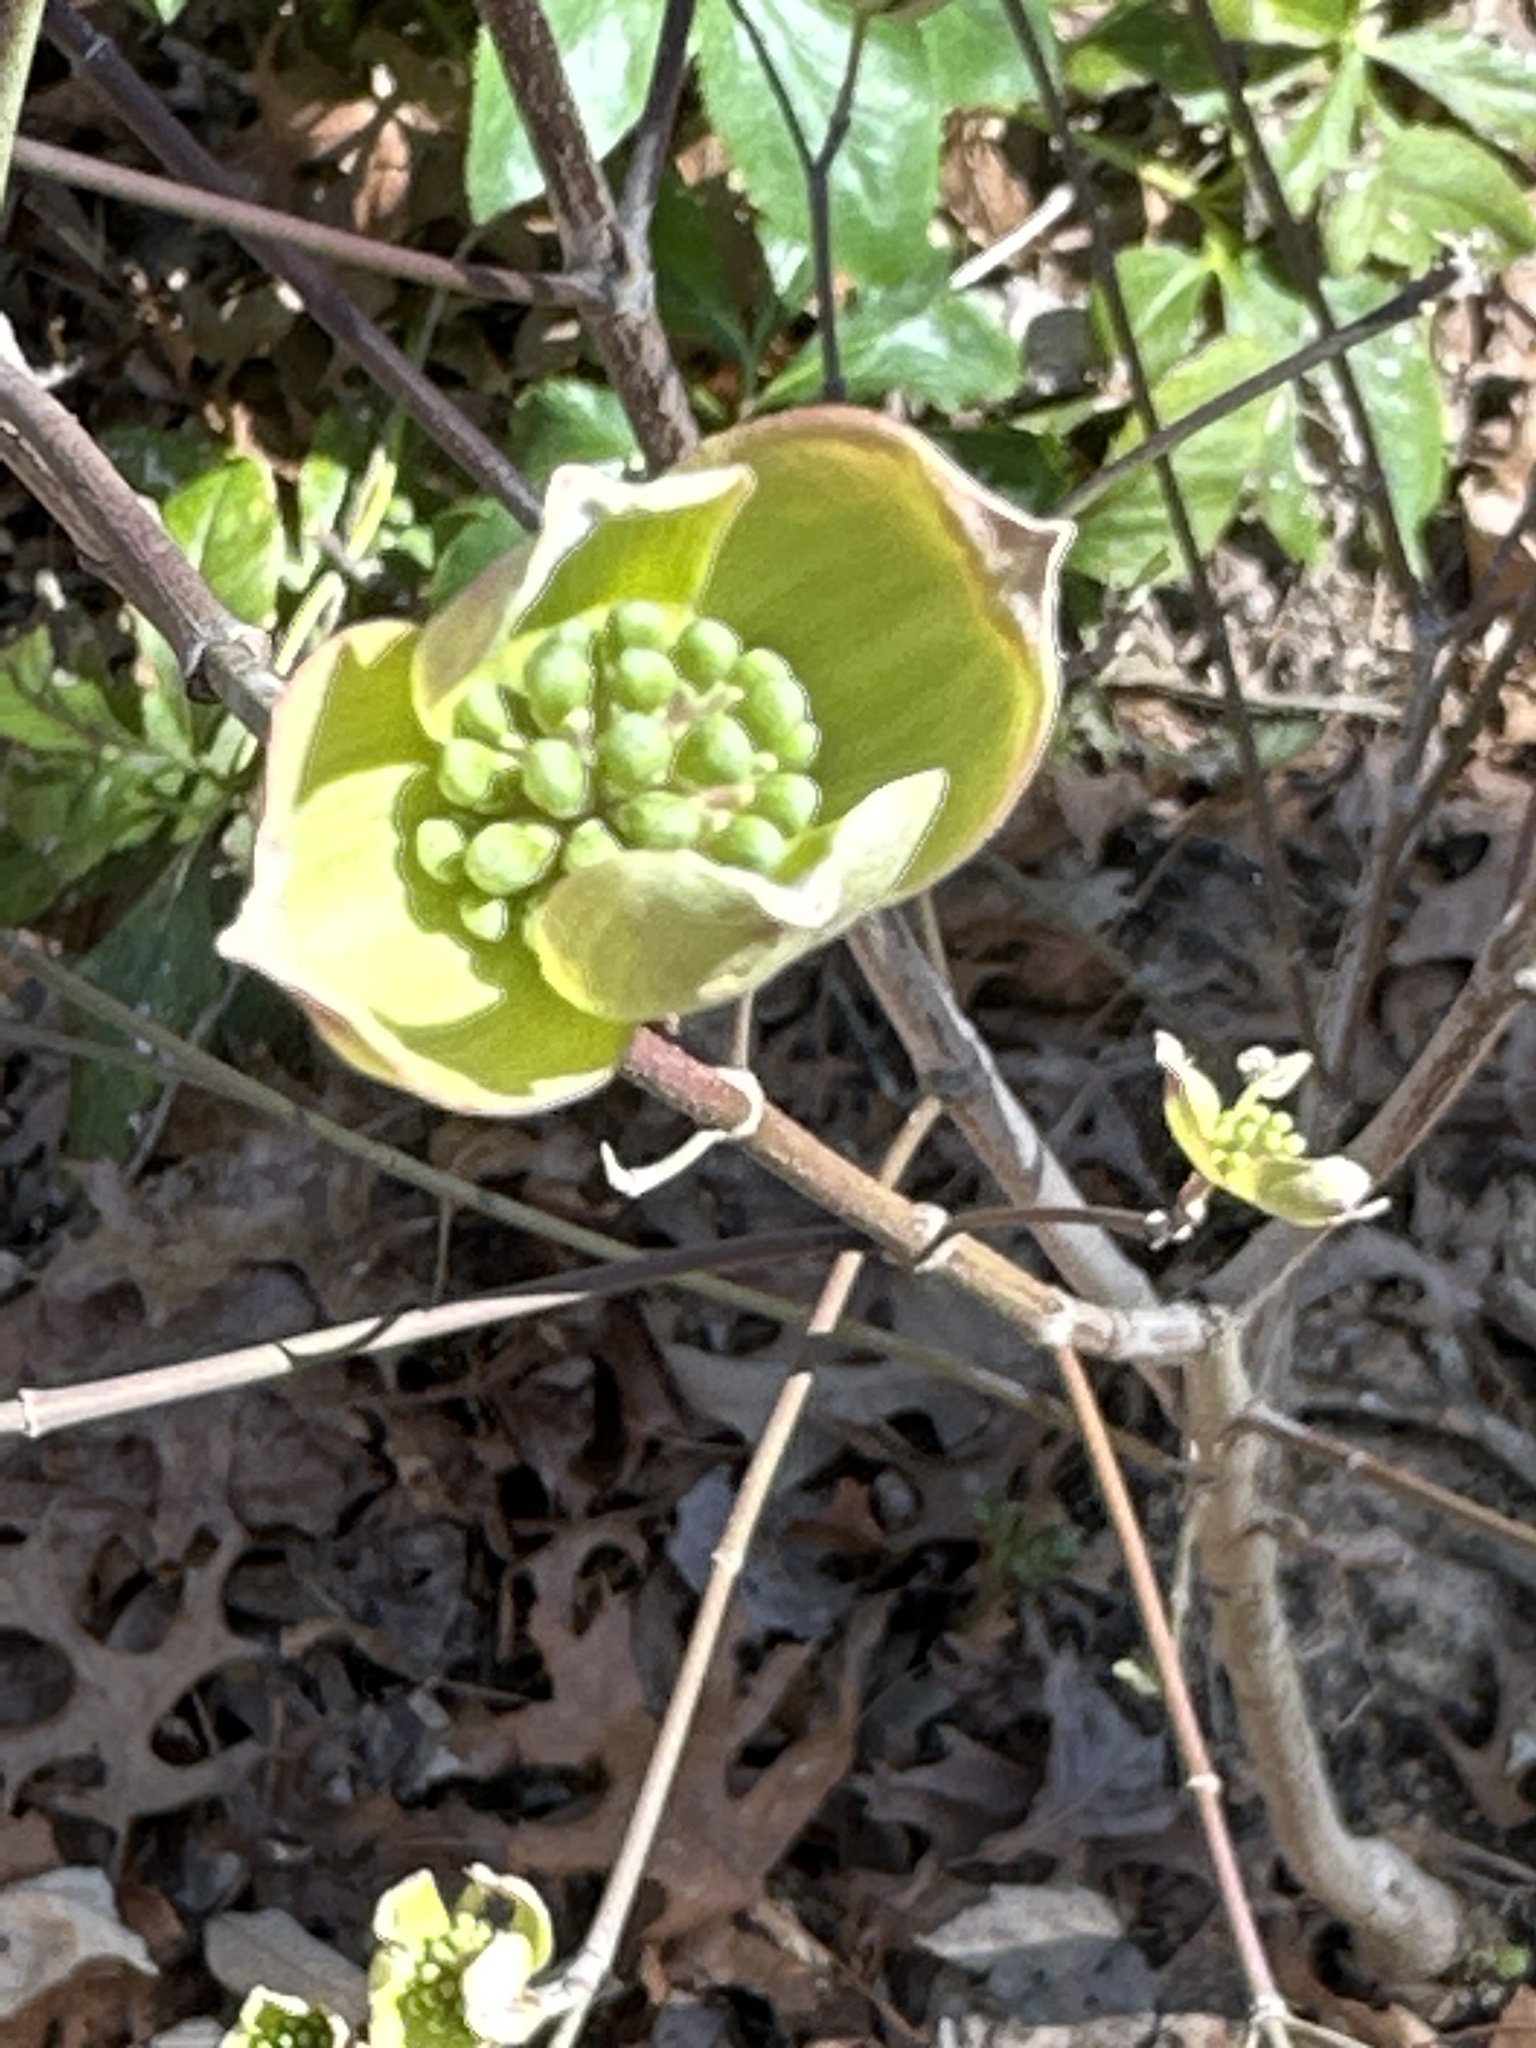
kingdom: Plantae
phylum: Tracheophyta
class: Magnoliopsida
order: Cornales
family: Cornaceae
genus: Cornus
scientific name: Cornus florida
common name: Flowering dogwood
